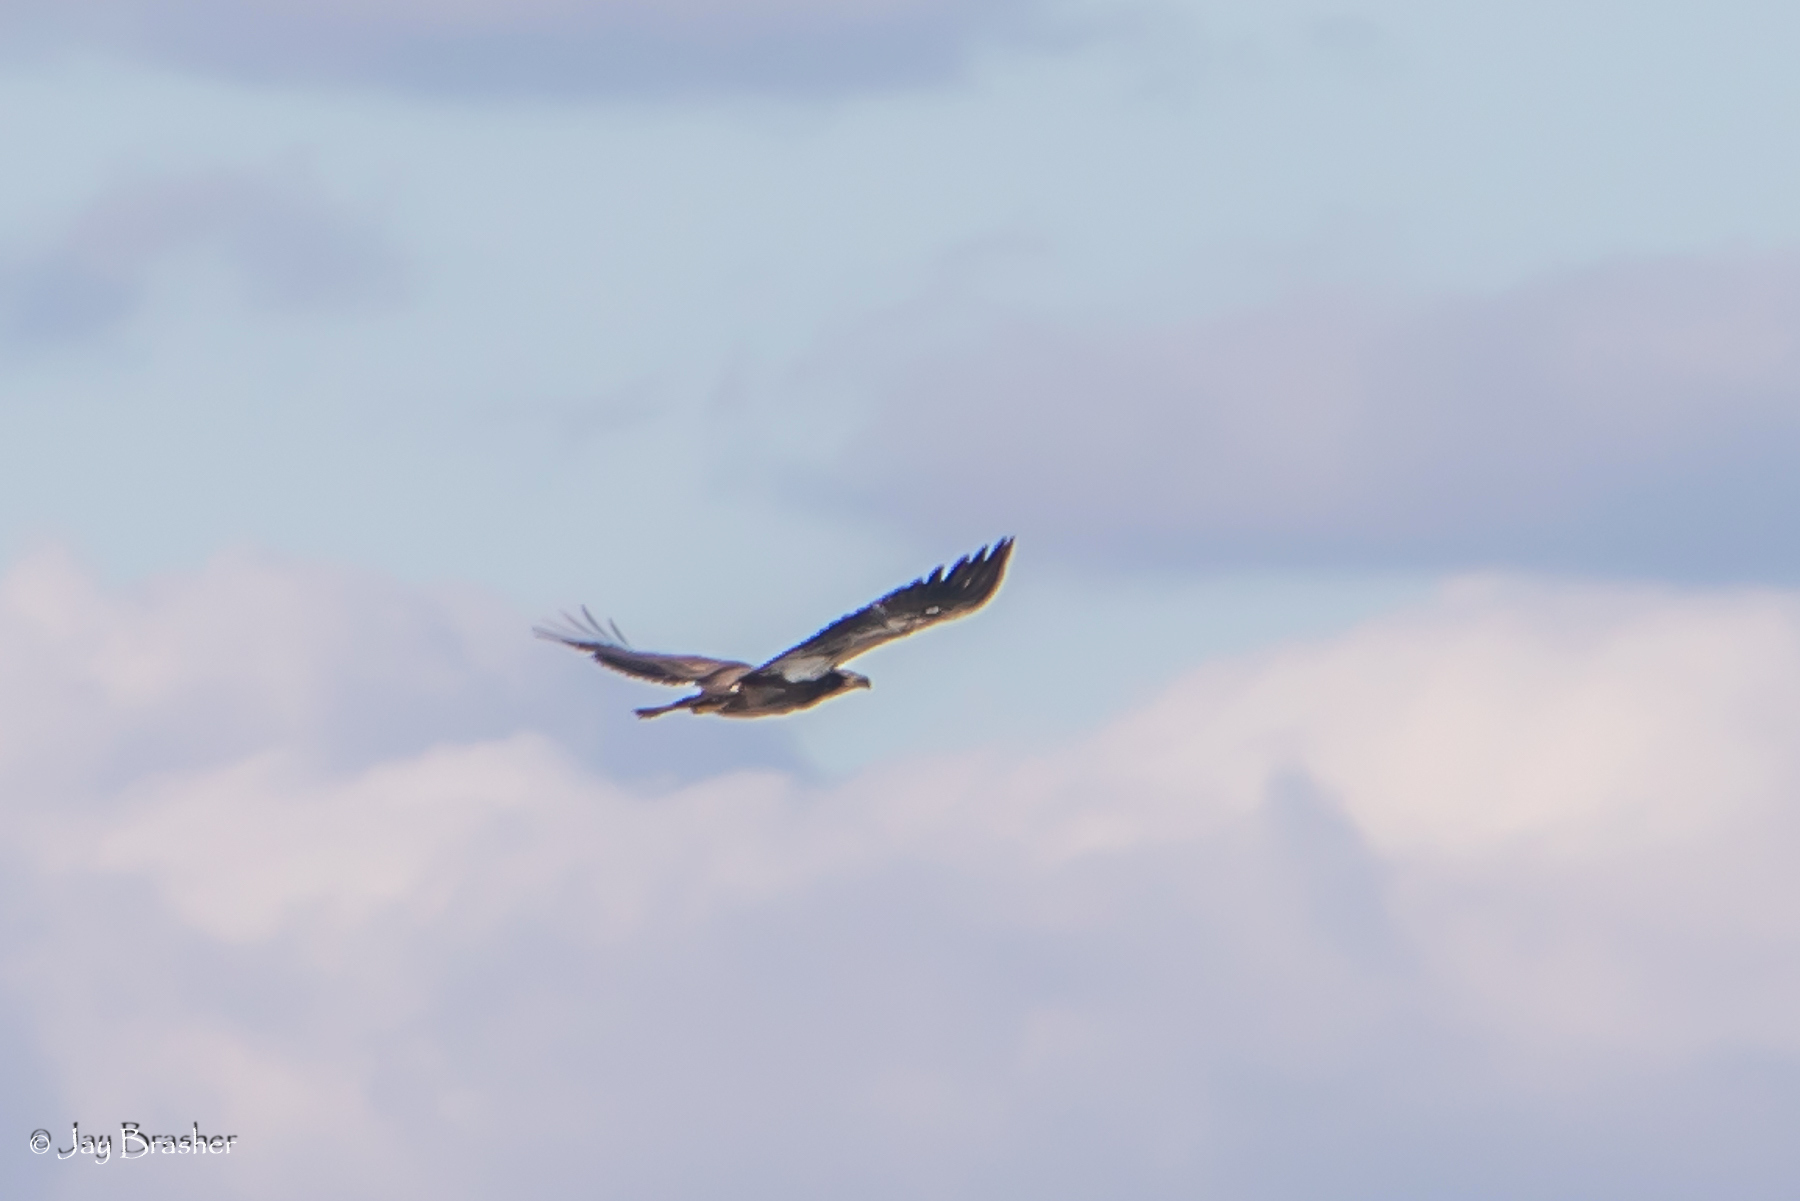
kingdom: Animalia
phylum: Chordata
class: Aves
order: Accipitriformes
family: Accipitridae
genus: Haliaeetus
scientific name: Haliaeetus leucocephalus
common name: Bald eagle
